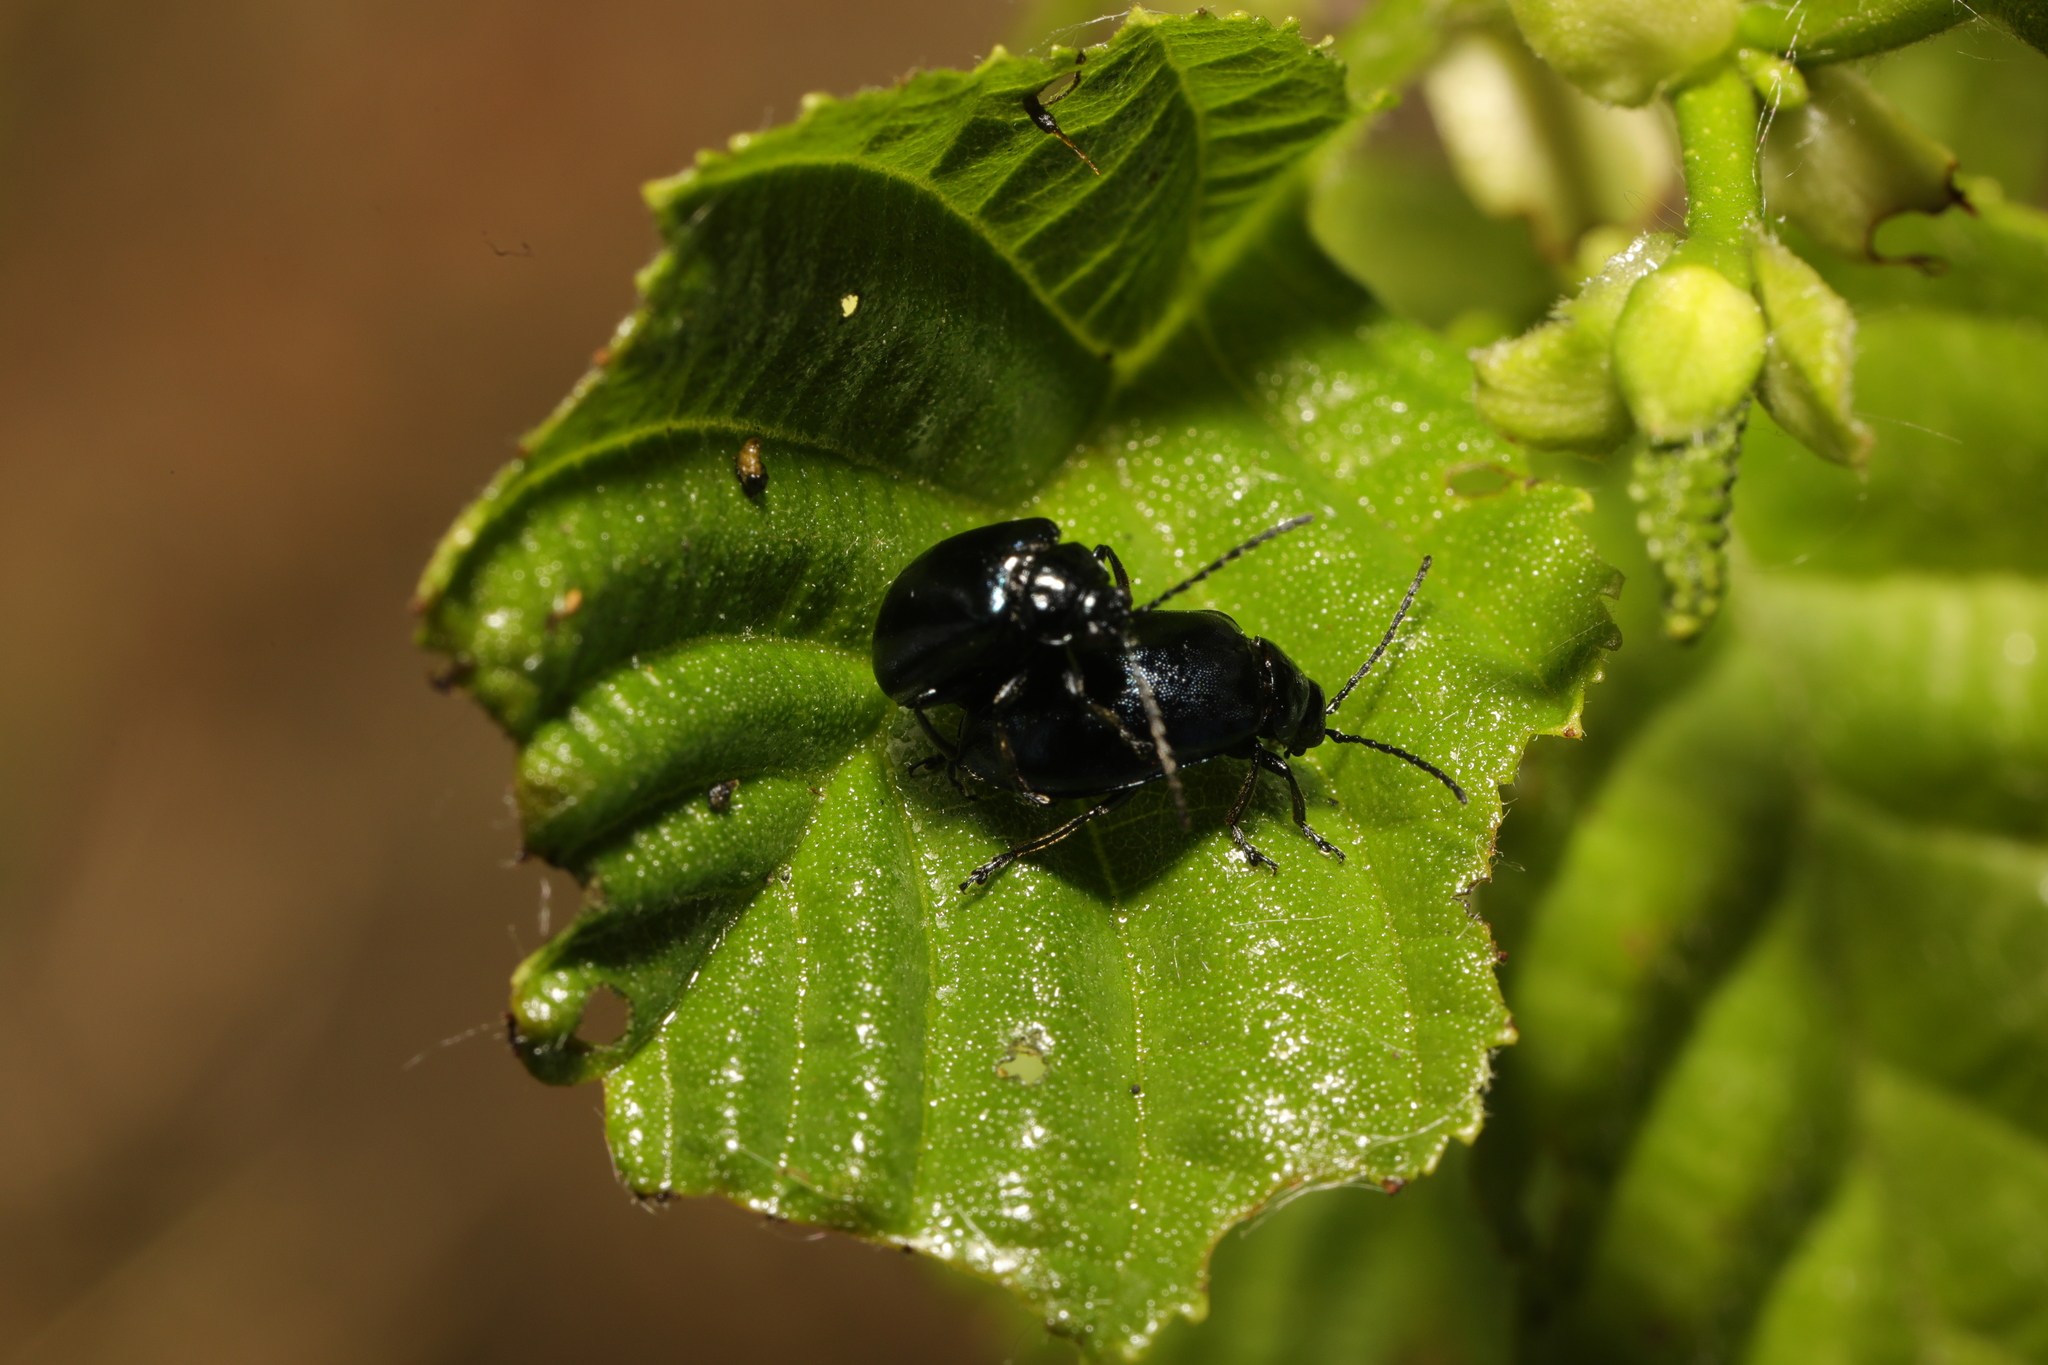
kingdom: Animalia
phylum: Arthropoda
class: Insecta
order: Coleoptera
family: Chrysomelidae
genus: Agelastica
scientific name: Agelastica alni
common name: Alder leaf beetle
